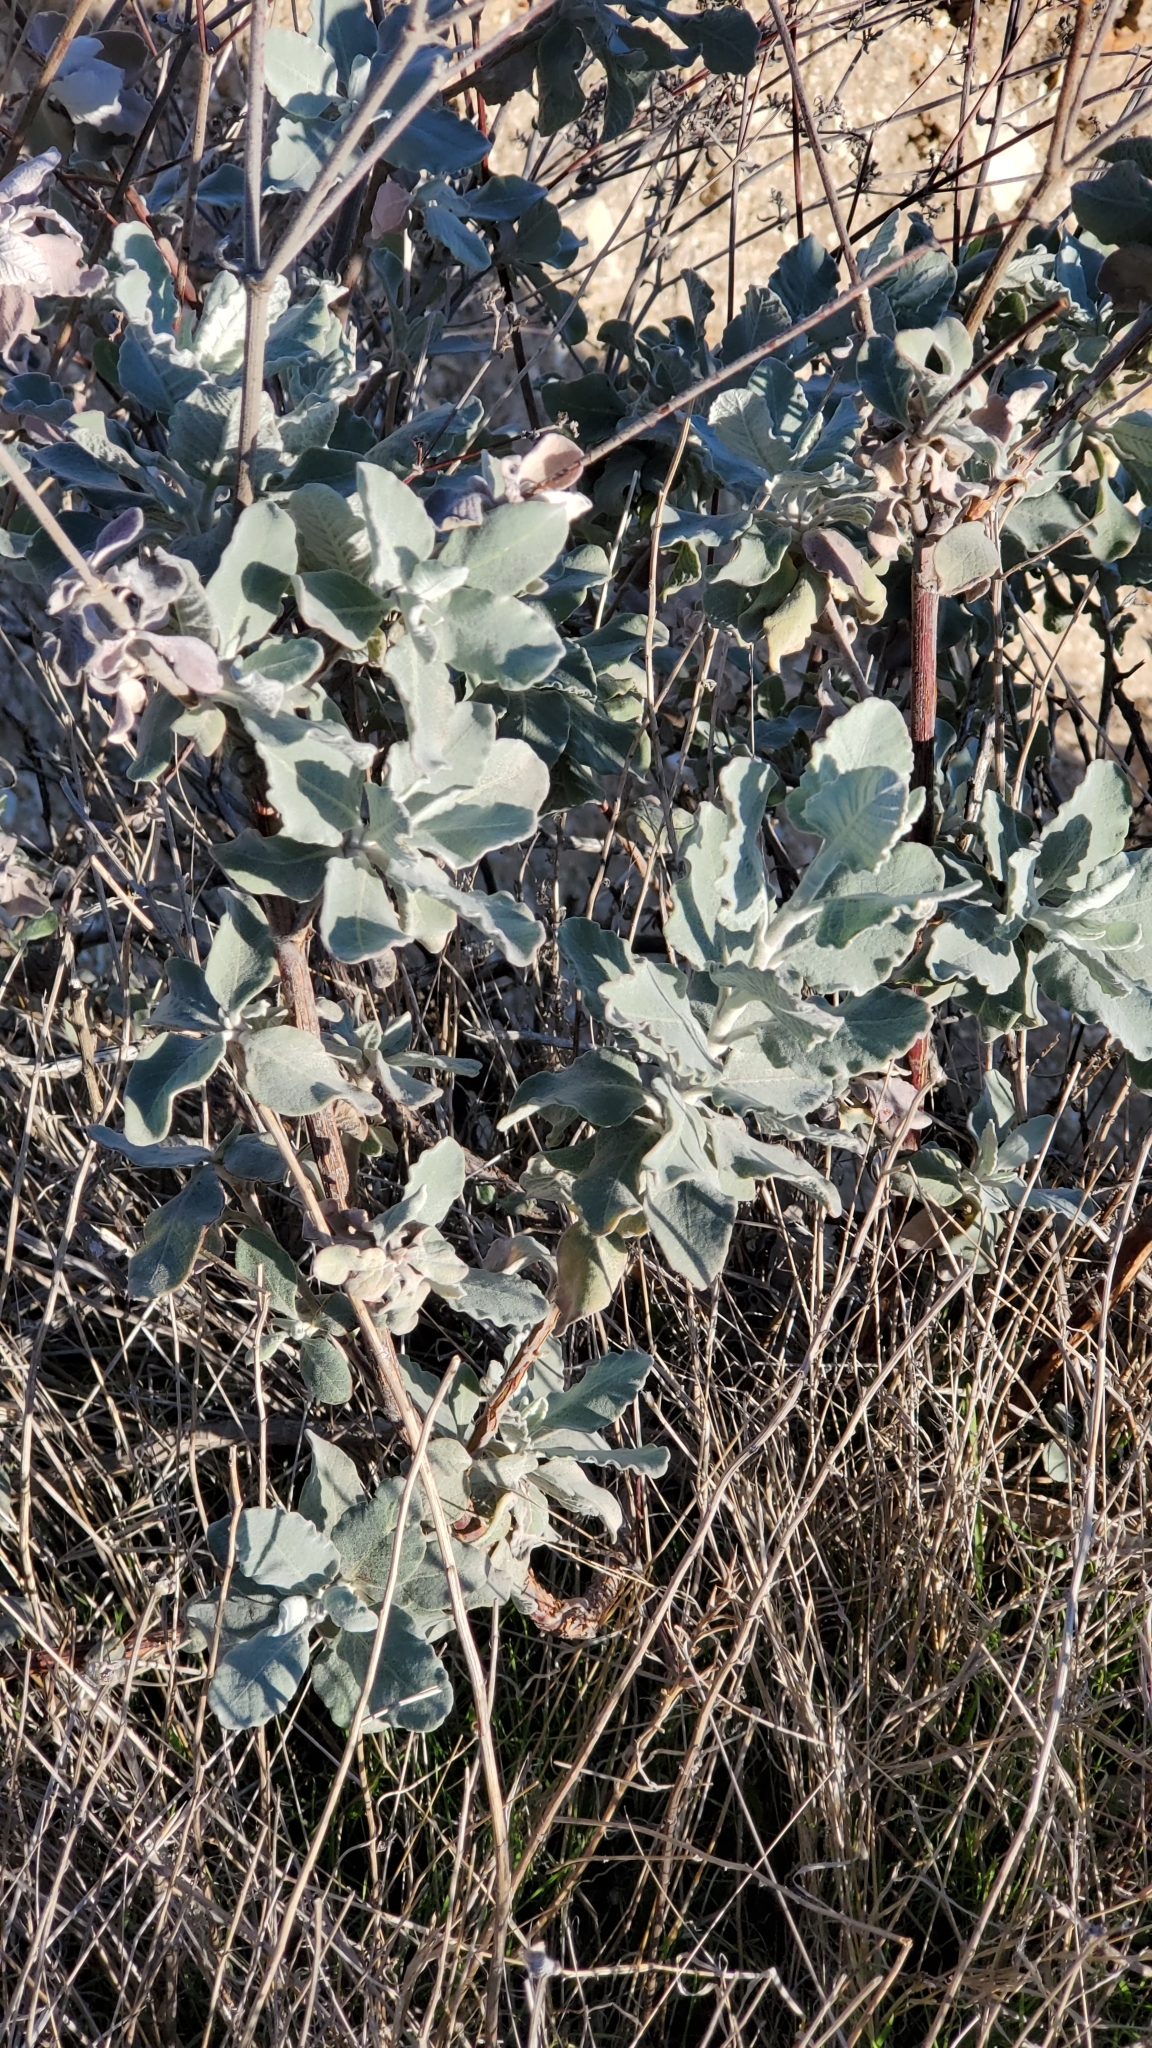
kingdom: Plantae
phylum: Tracheophyta
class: Magnoliopsida
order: Caryophyllales
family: Polygonaceae
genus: Eriogonum
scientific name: Eriogonum cinereum
